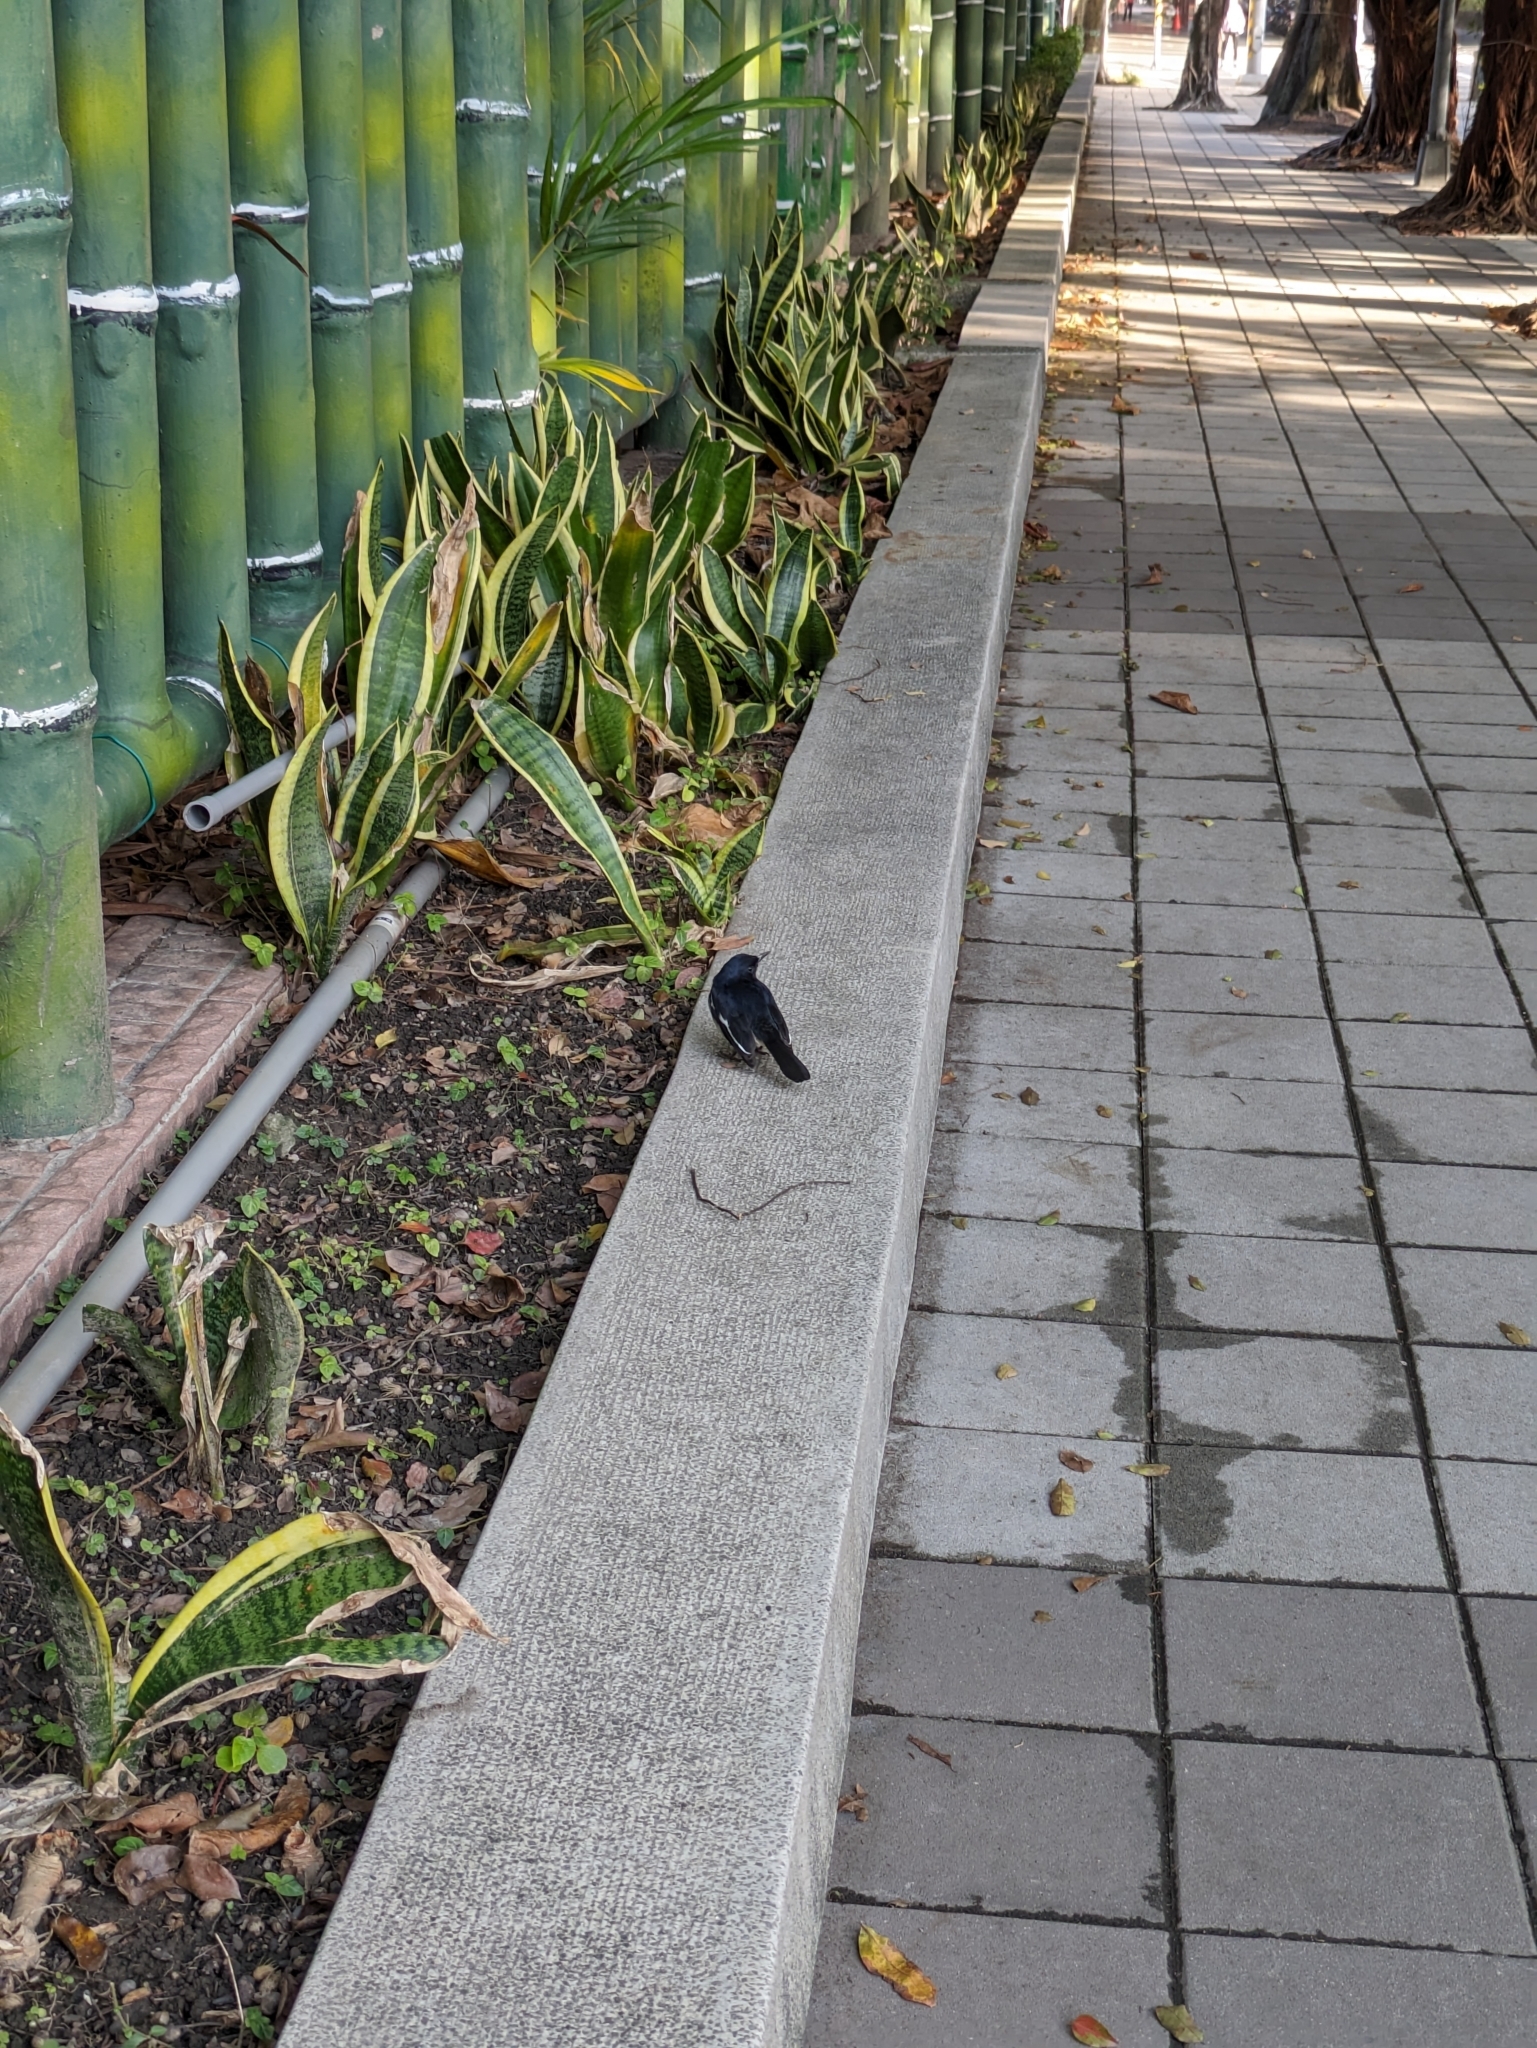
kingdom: Animalia
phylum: Chordata
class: Aves
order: Passeriformes
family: Muscicapidae
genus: Copsychus
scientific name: Copsychus saularis
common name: Oriental magpie-robin
